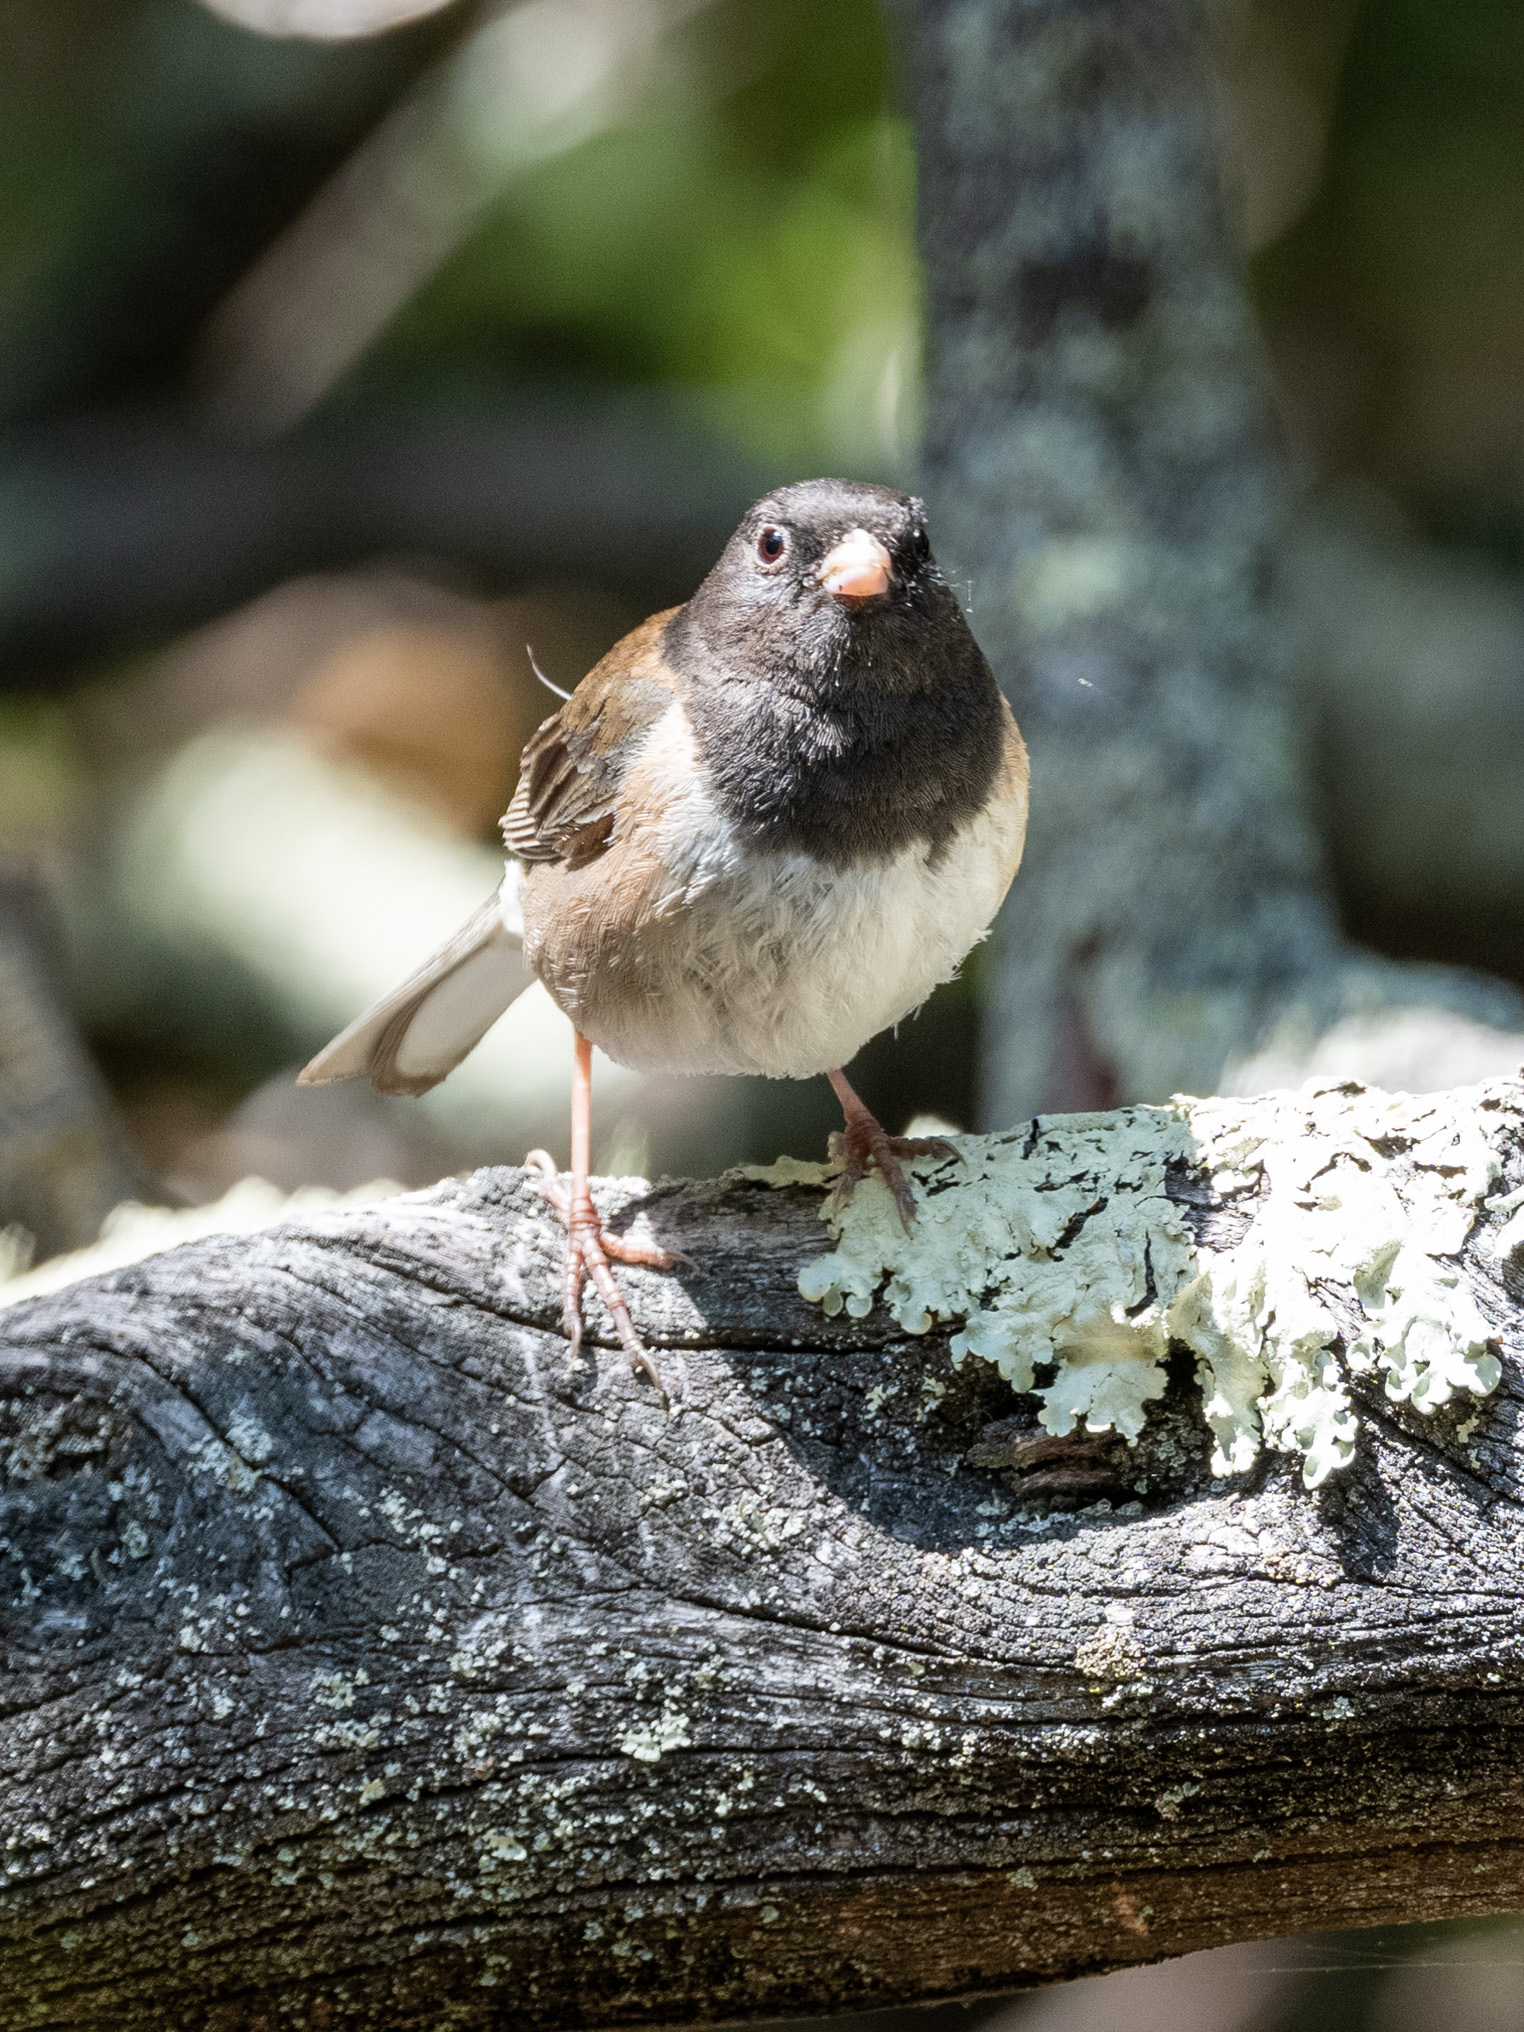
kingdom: Animalia
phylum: Chordata
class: Aves
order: Passeriformes
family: Passerellidae
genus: Junco
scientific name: Junco hyemalis
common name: Dark-eyed junco
